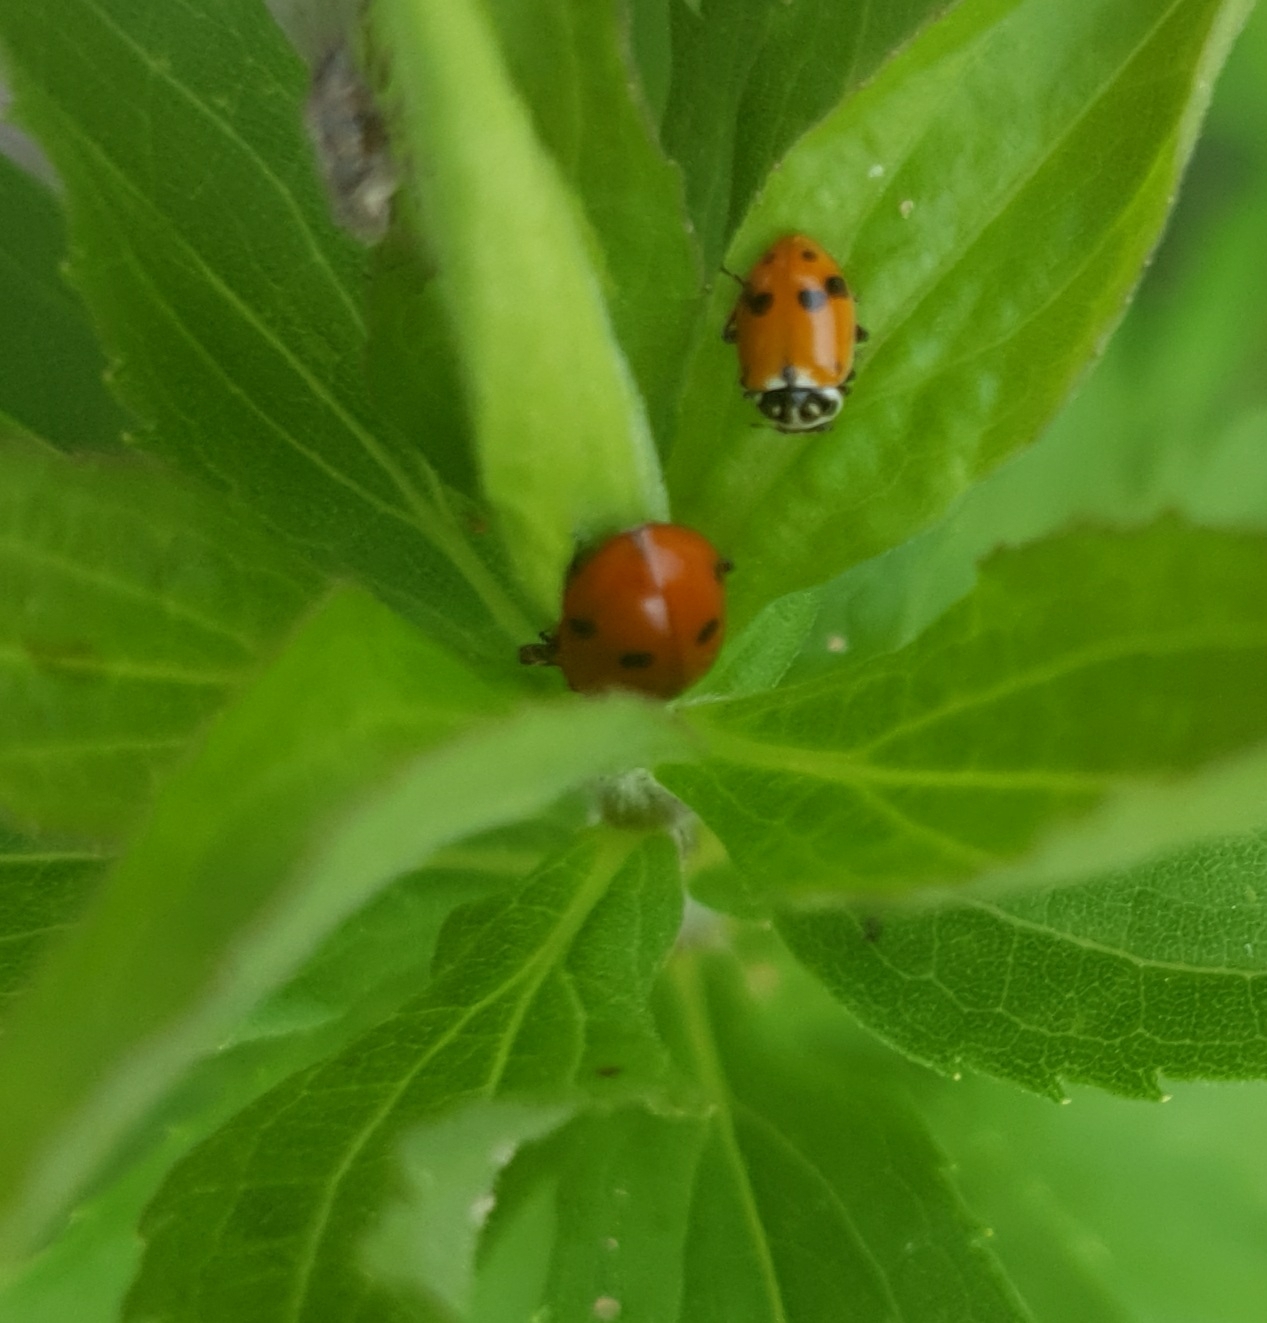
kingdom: Animalia
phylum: Arthropoda
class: Insecta
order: Coleoptera
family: Coccinellidae
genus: Hippodamia
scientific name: Hippodamia variegata
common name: Ladybird beetle
